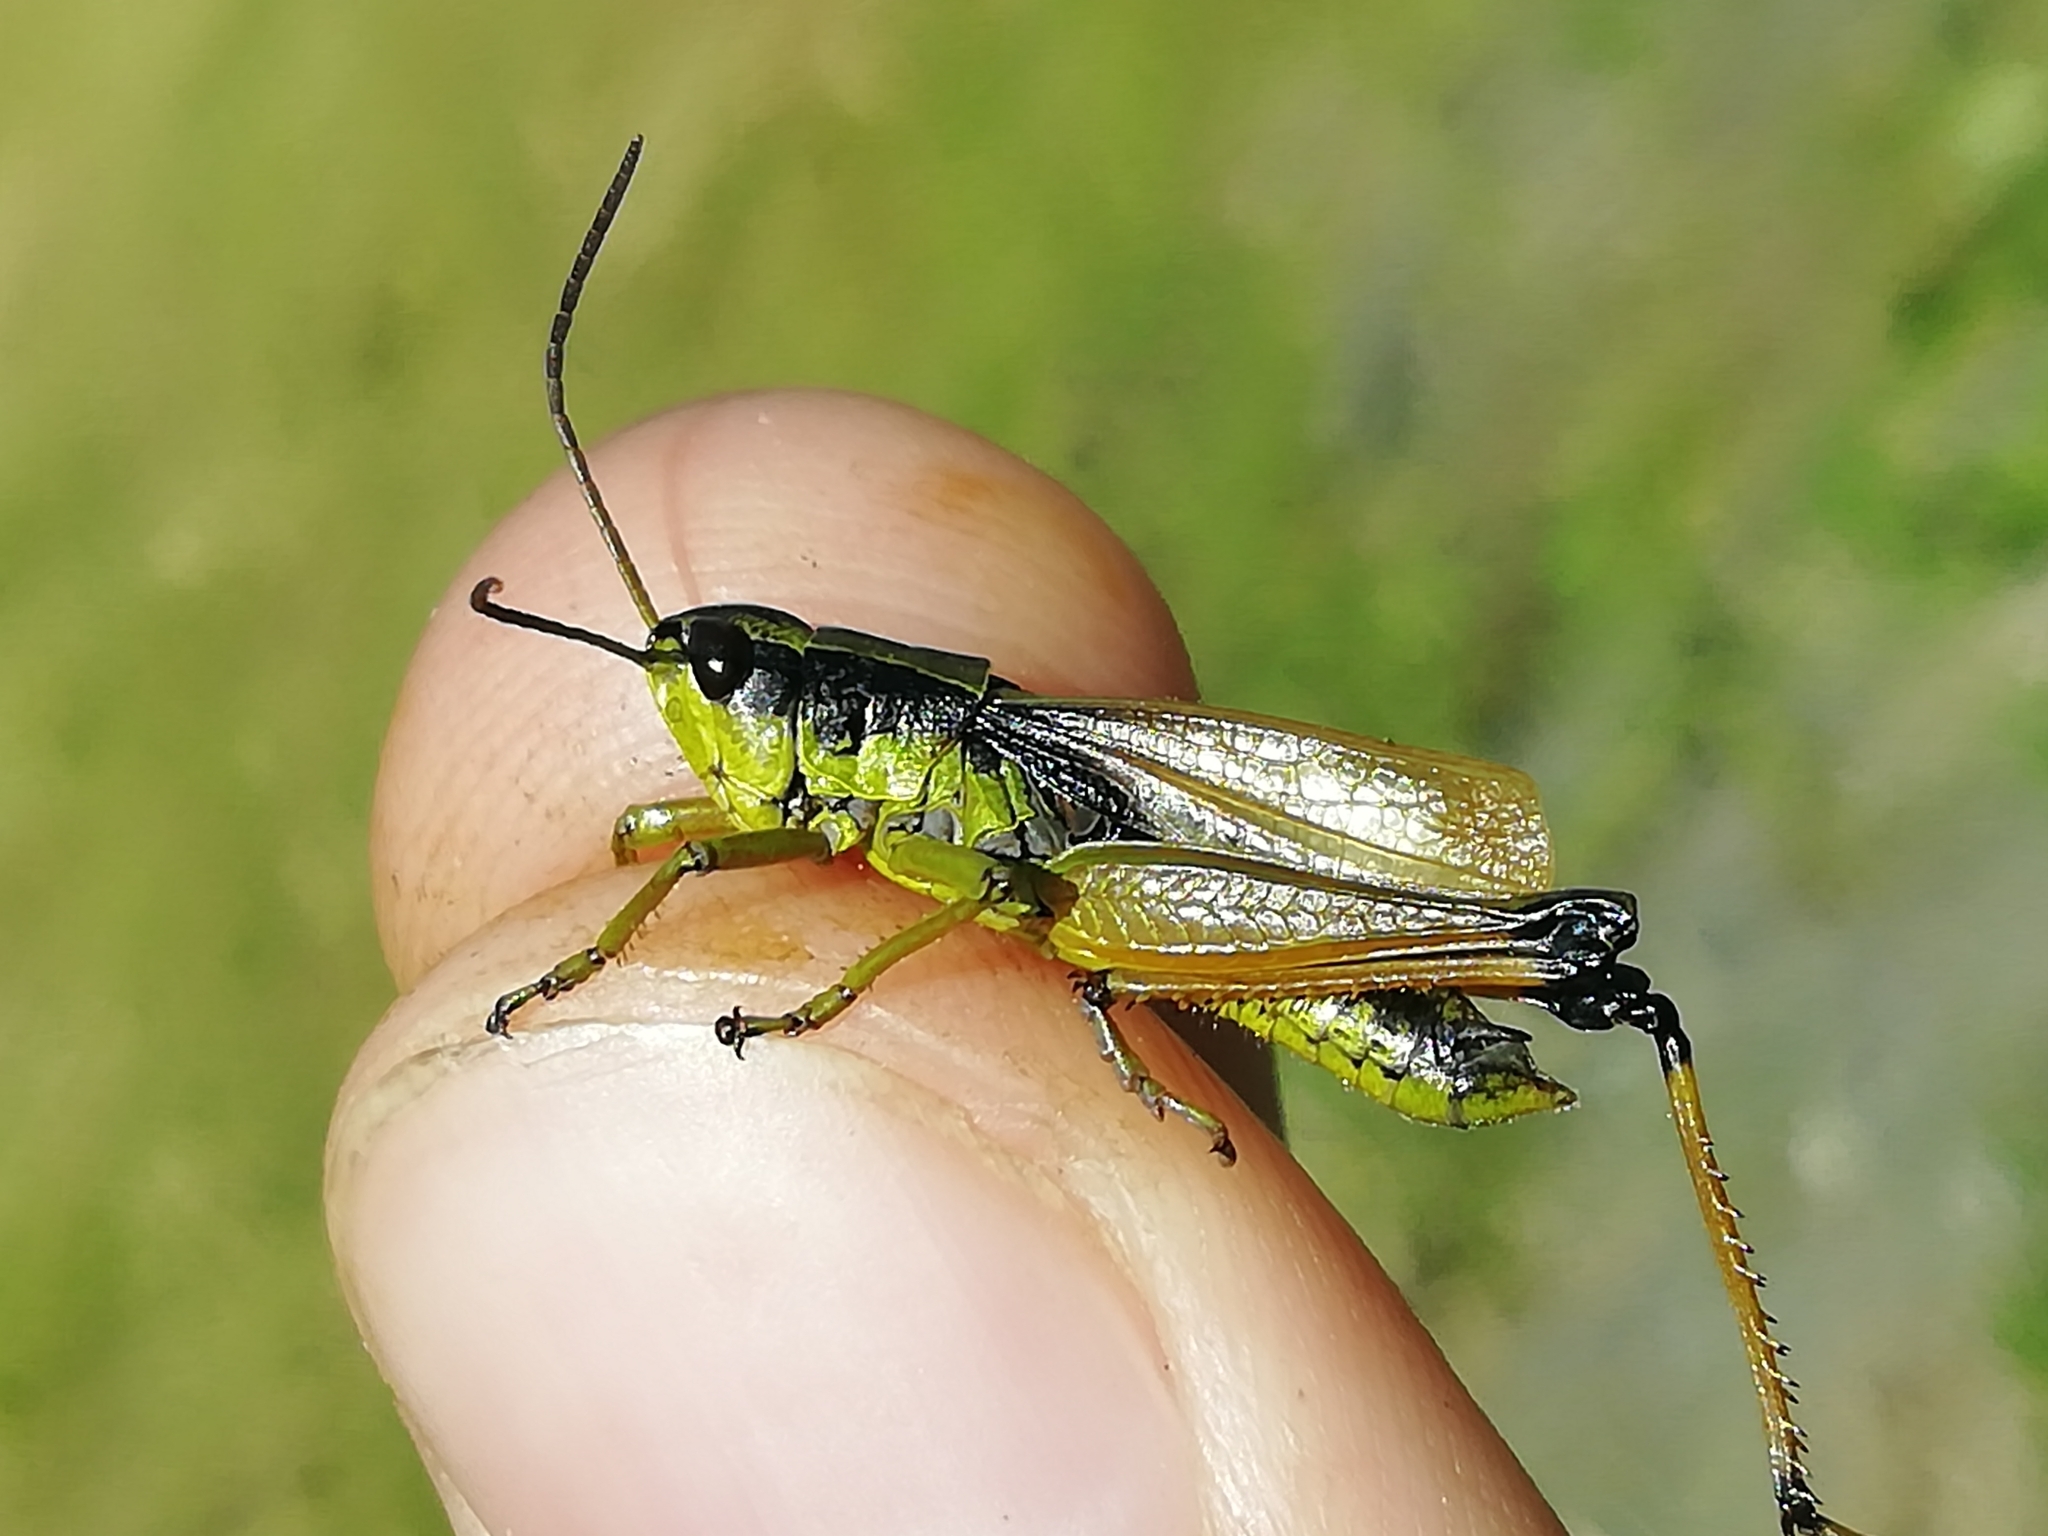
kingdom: Animalia
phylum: Arthropoda
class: Insecta
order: Orthoptera
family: Acrididae
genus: Podismopsis
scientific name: Podismopsis poppiusi
